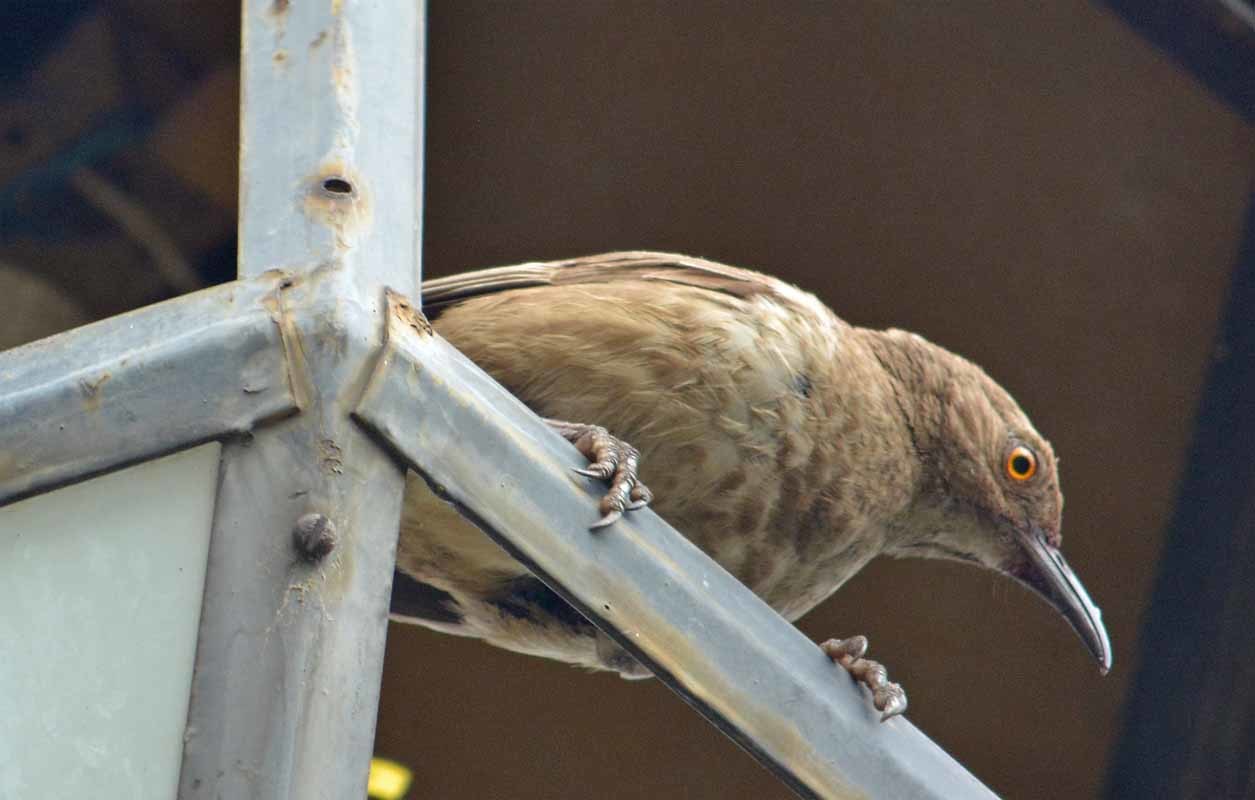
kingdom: Animalia
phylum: Chordata
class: Aves
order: Passeriformes
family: Mimidae
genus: Toxostoma
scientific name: Toxostoma curvirostre
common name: Curve-billed thrasher
